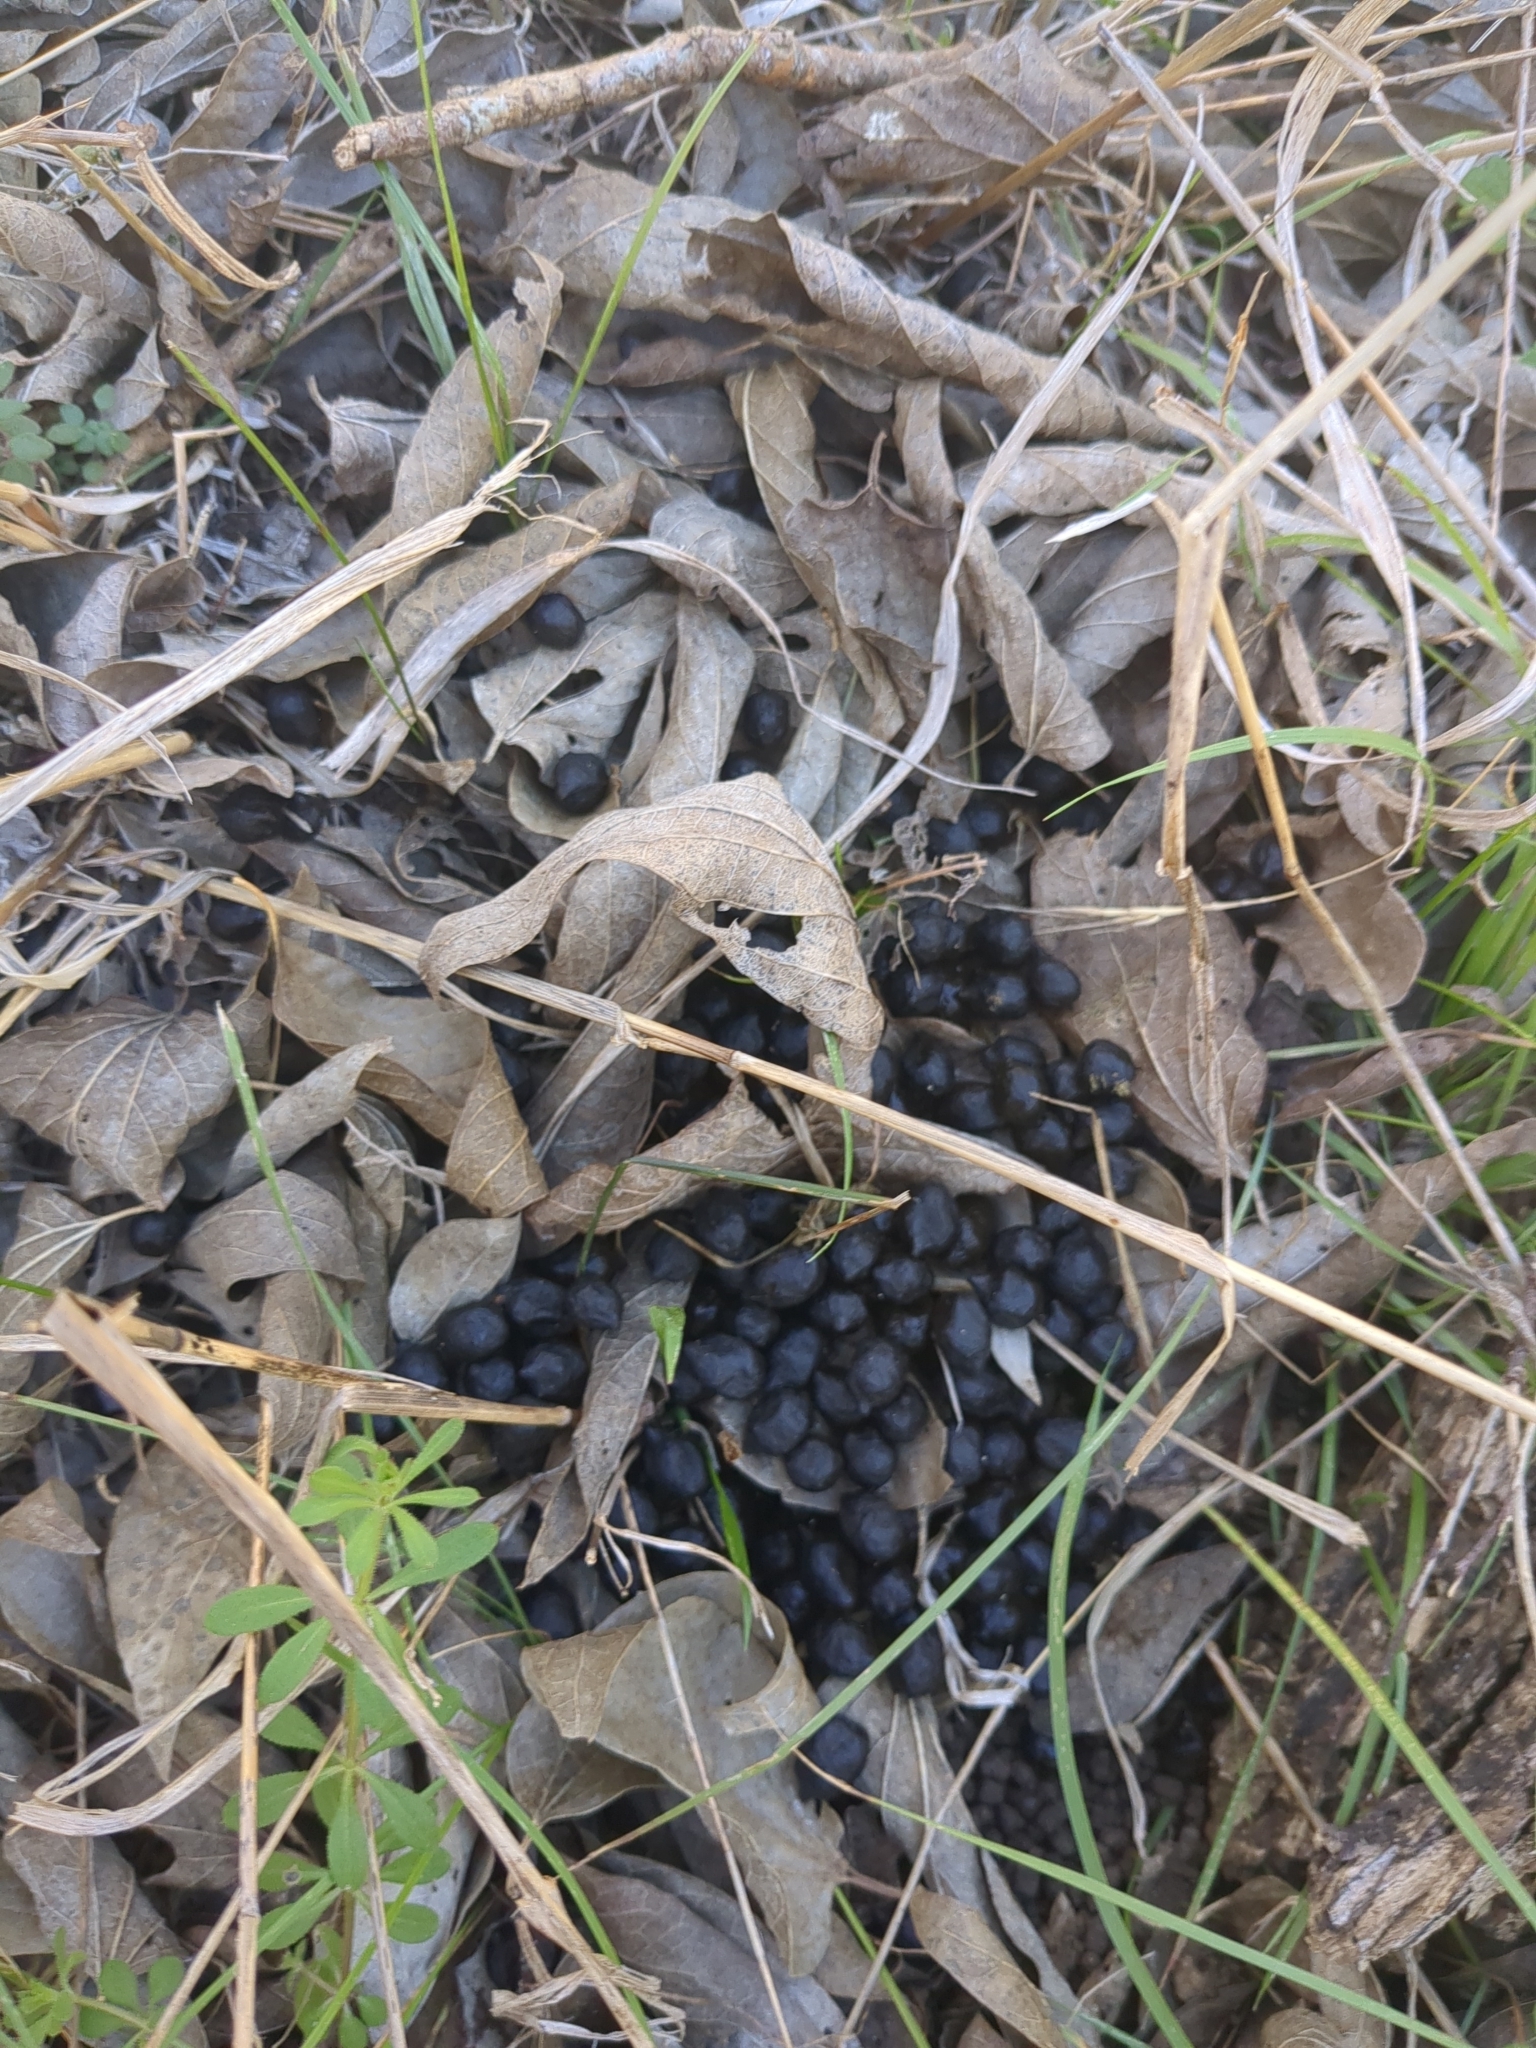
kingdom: Animalia
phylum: Chordata
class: Mammalia
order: Artiodactyla
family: Cervidae
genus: Odocoileus
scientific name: Odocoileus virginianus
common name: White-tailed deer
